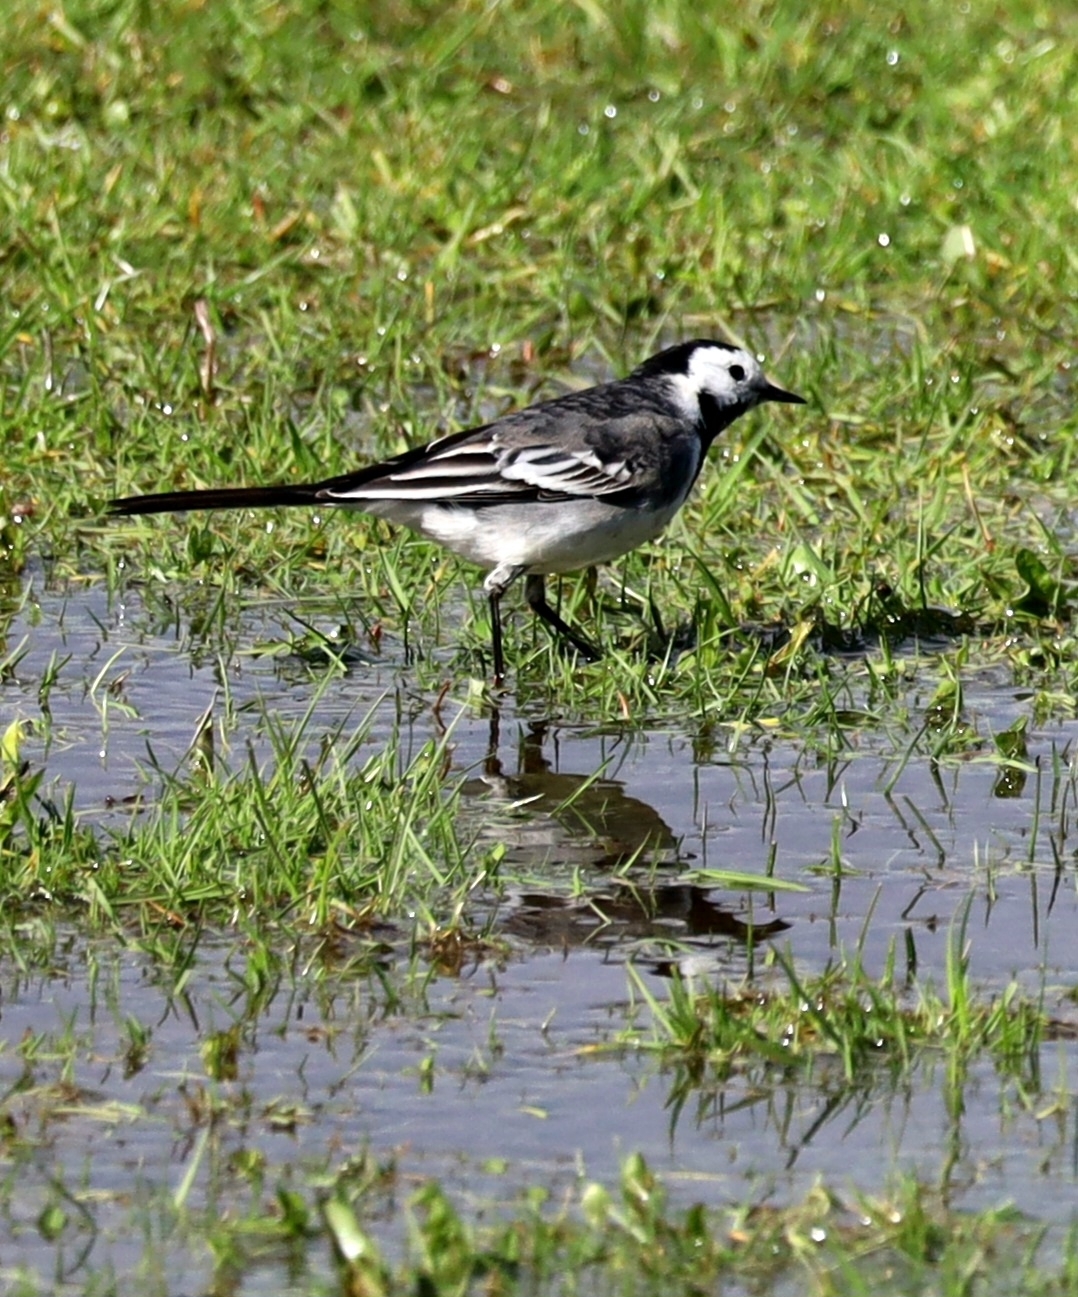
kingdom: Animalia
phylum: Chordata
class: Aves
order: Passeriformes
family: Motacillidae
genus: Motacilla
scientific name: Motacilla alba
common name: White wagtail
